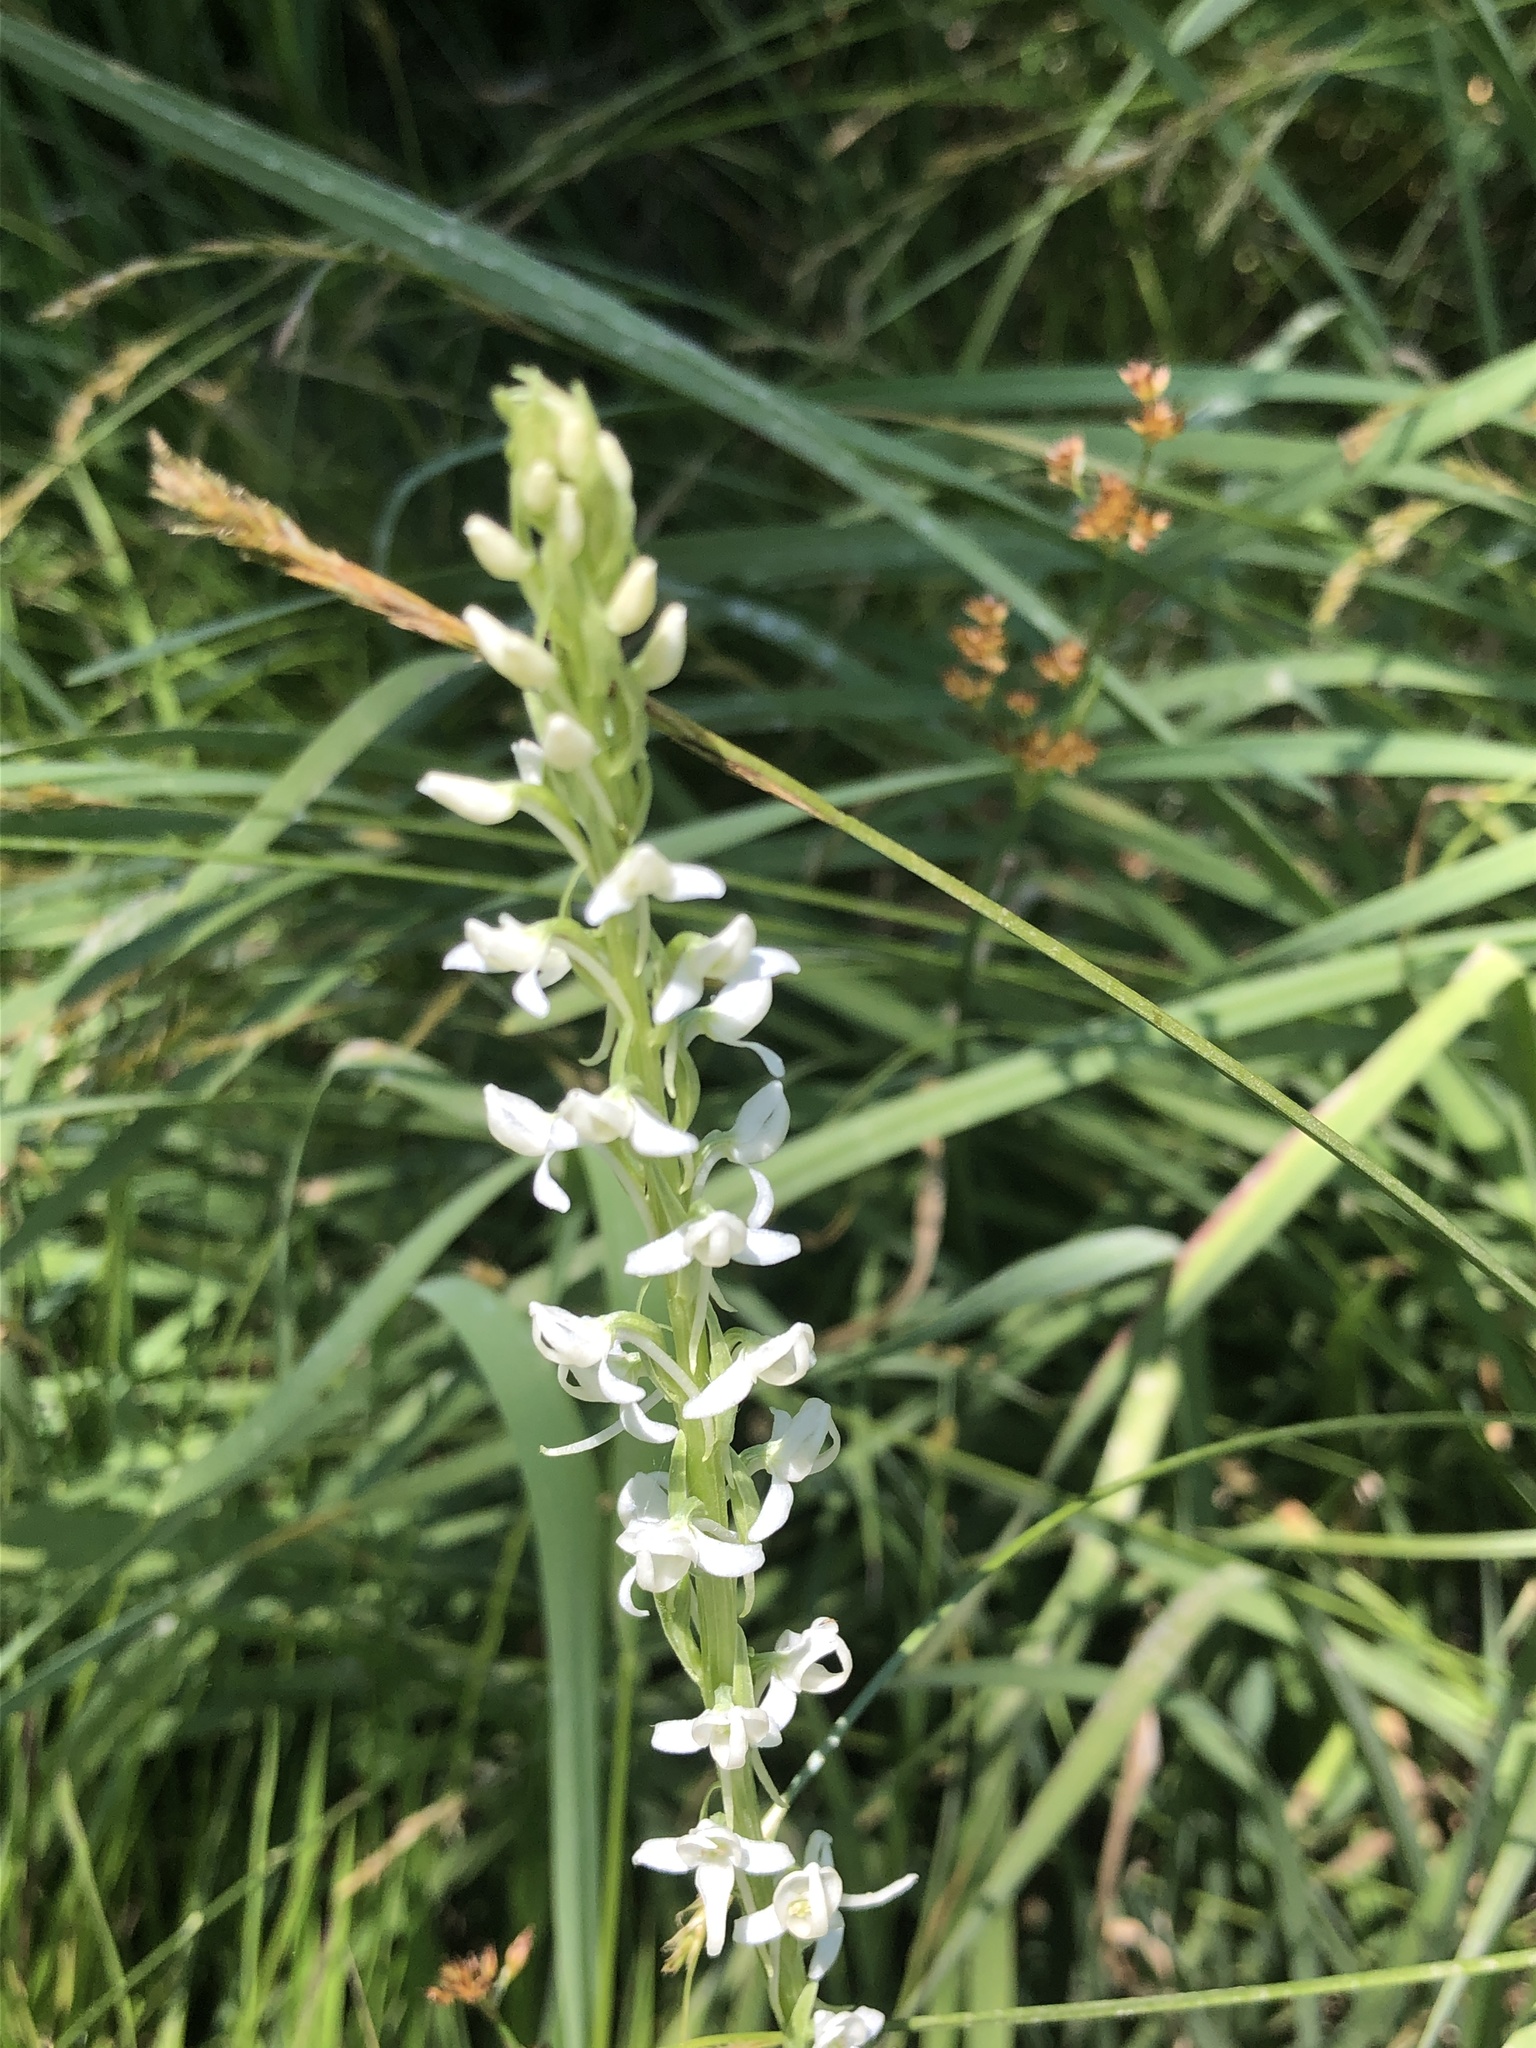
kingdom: Plantae
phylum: Tracheophyta
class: Liliopsida
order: Asparagales
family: Orchidaceae
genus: Platanthera
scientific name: Platanthera dilatata
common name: Bog candles
